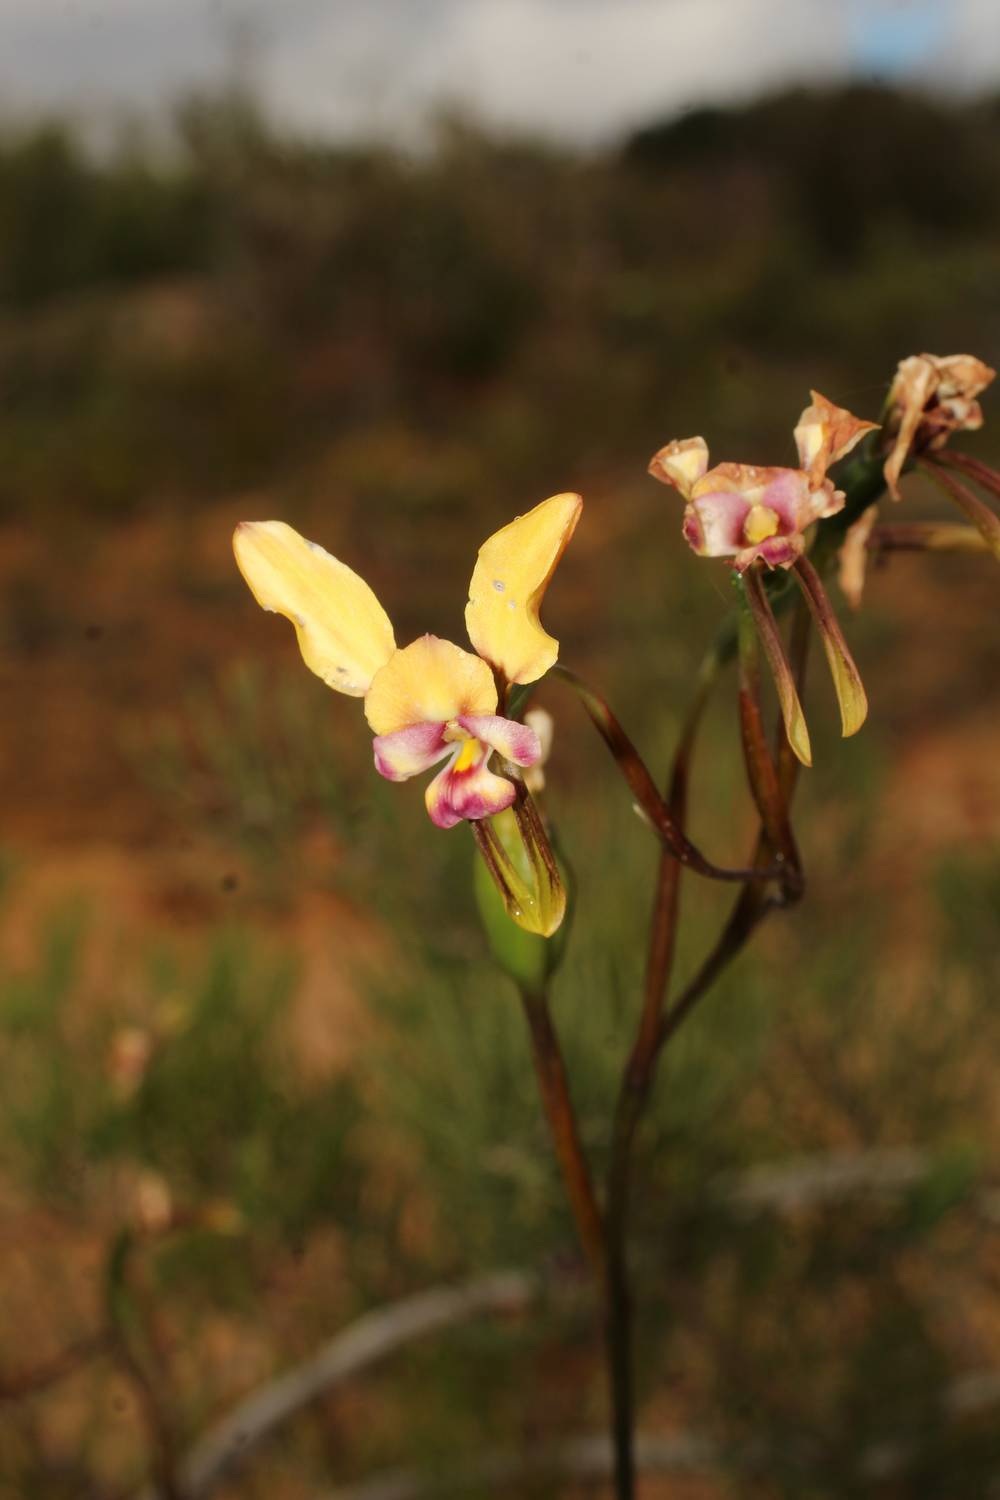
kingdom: Plantae
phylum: Tracheophyta
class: Liliopsida
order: Asparagales
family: Orchidaceae
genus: Diuris
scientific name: Diuris pulchella
